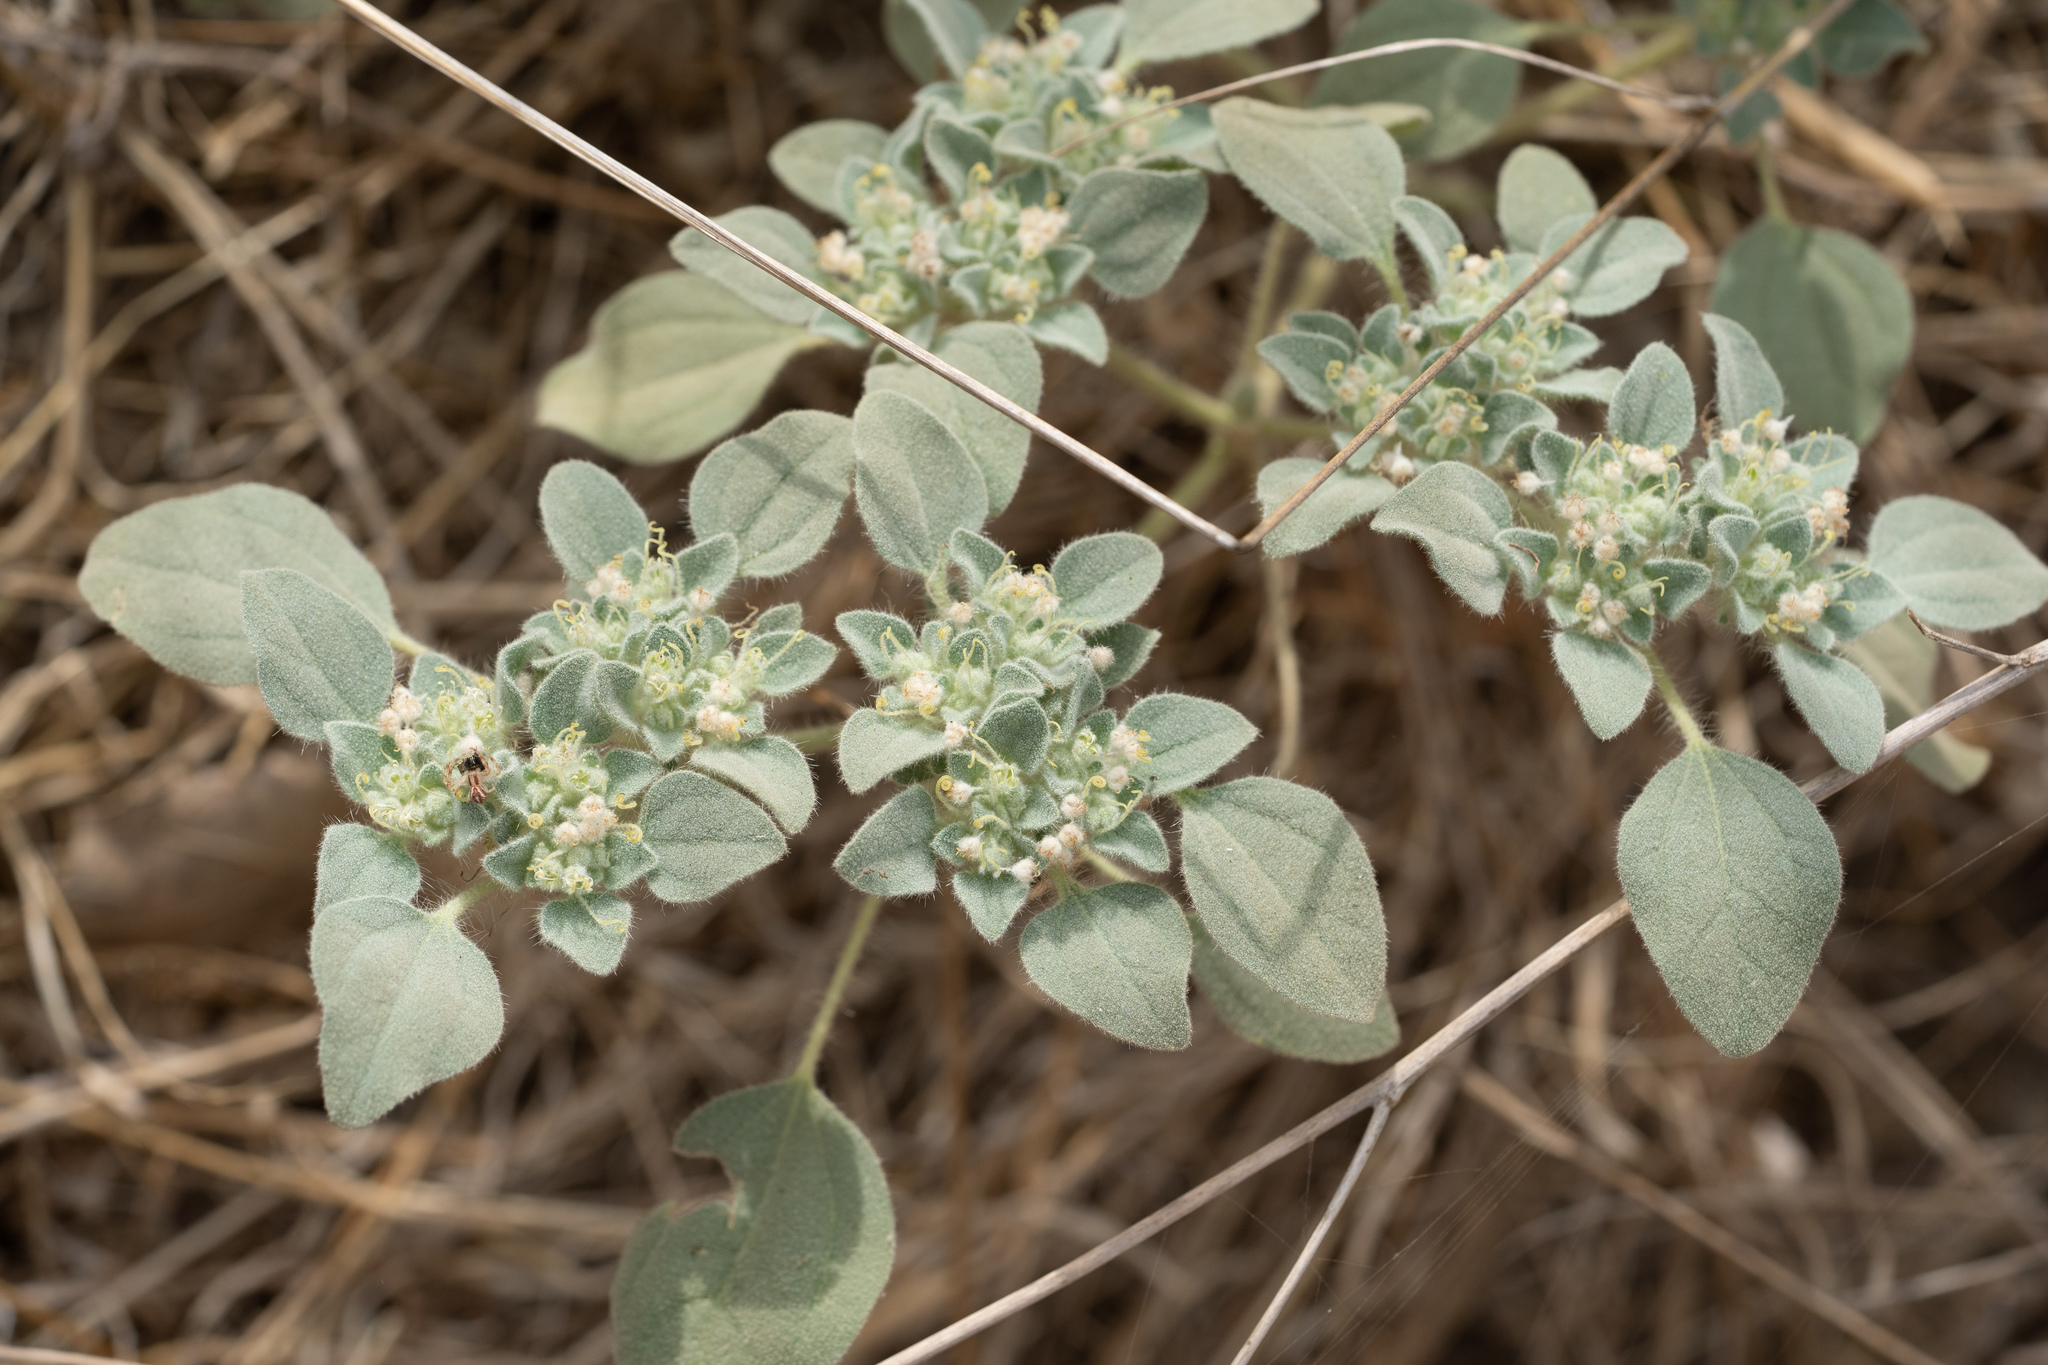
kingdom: Plantae
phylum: Tracheophyta
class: Magnoliopsida
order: Malpighiales
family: Euphorbiaceae
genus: Croton
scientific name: Croton setiger
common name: Dove weed
